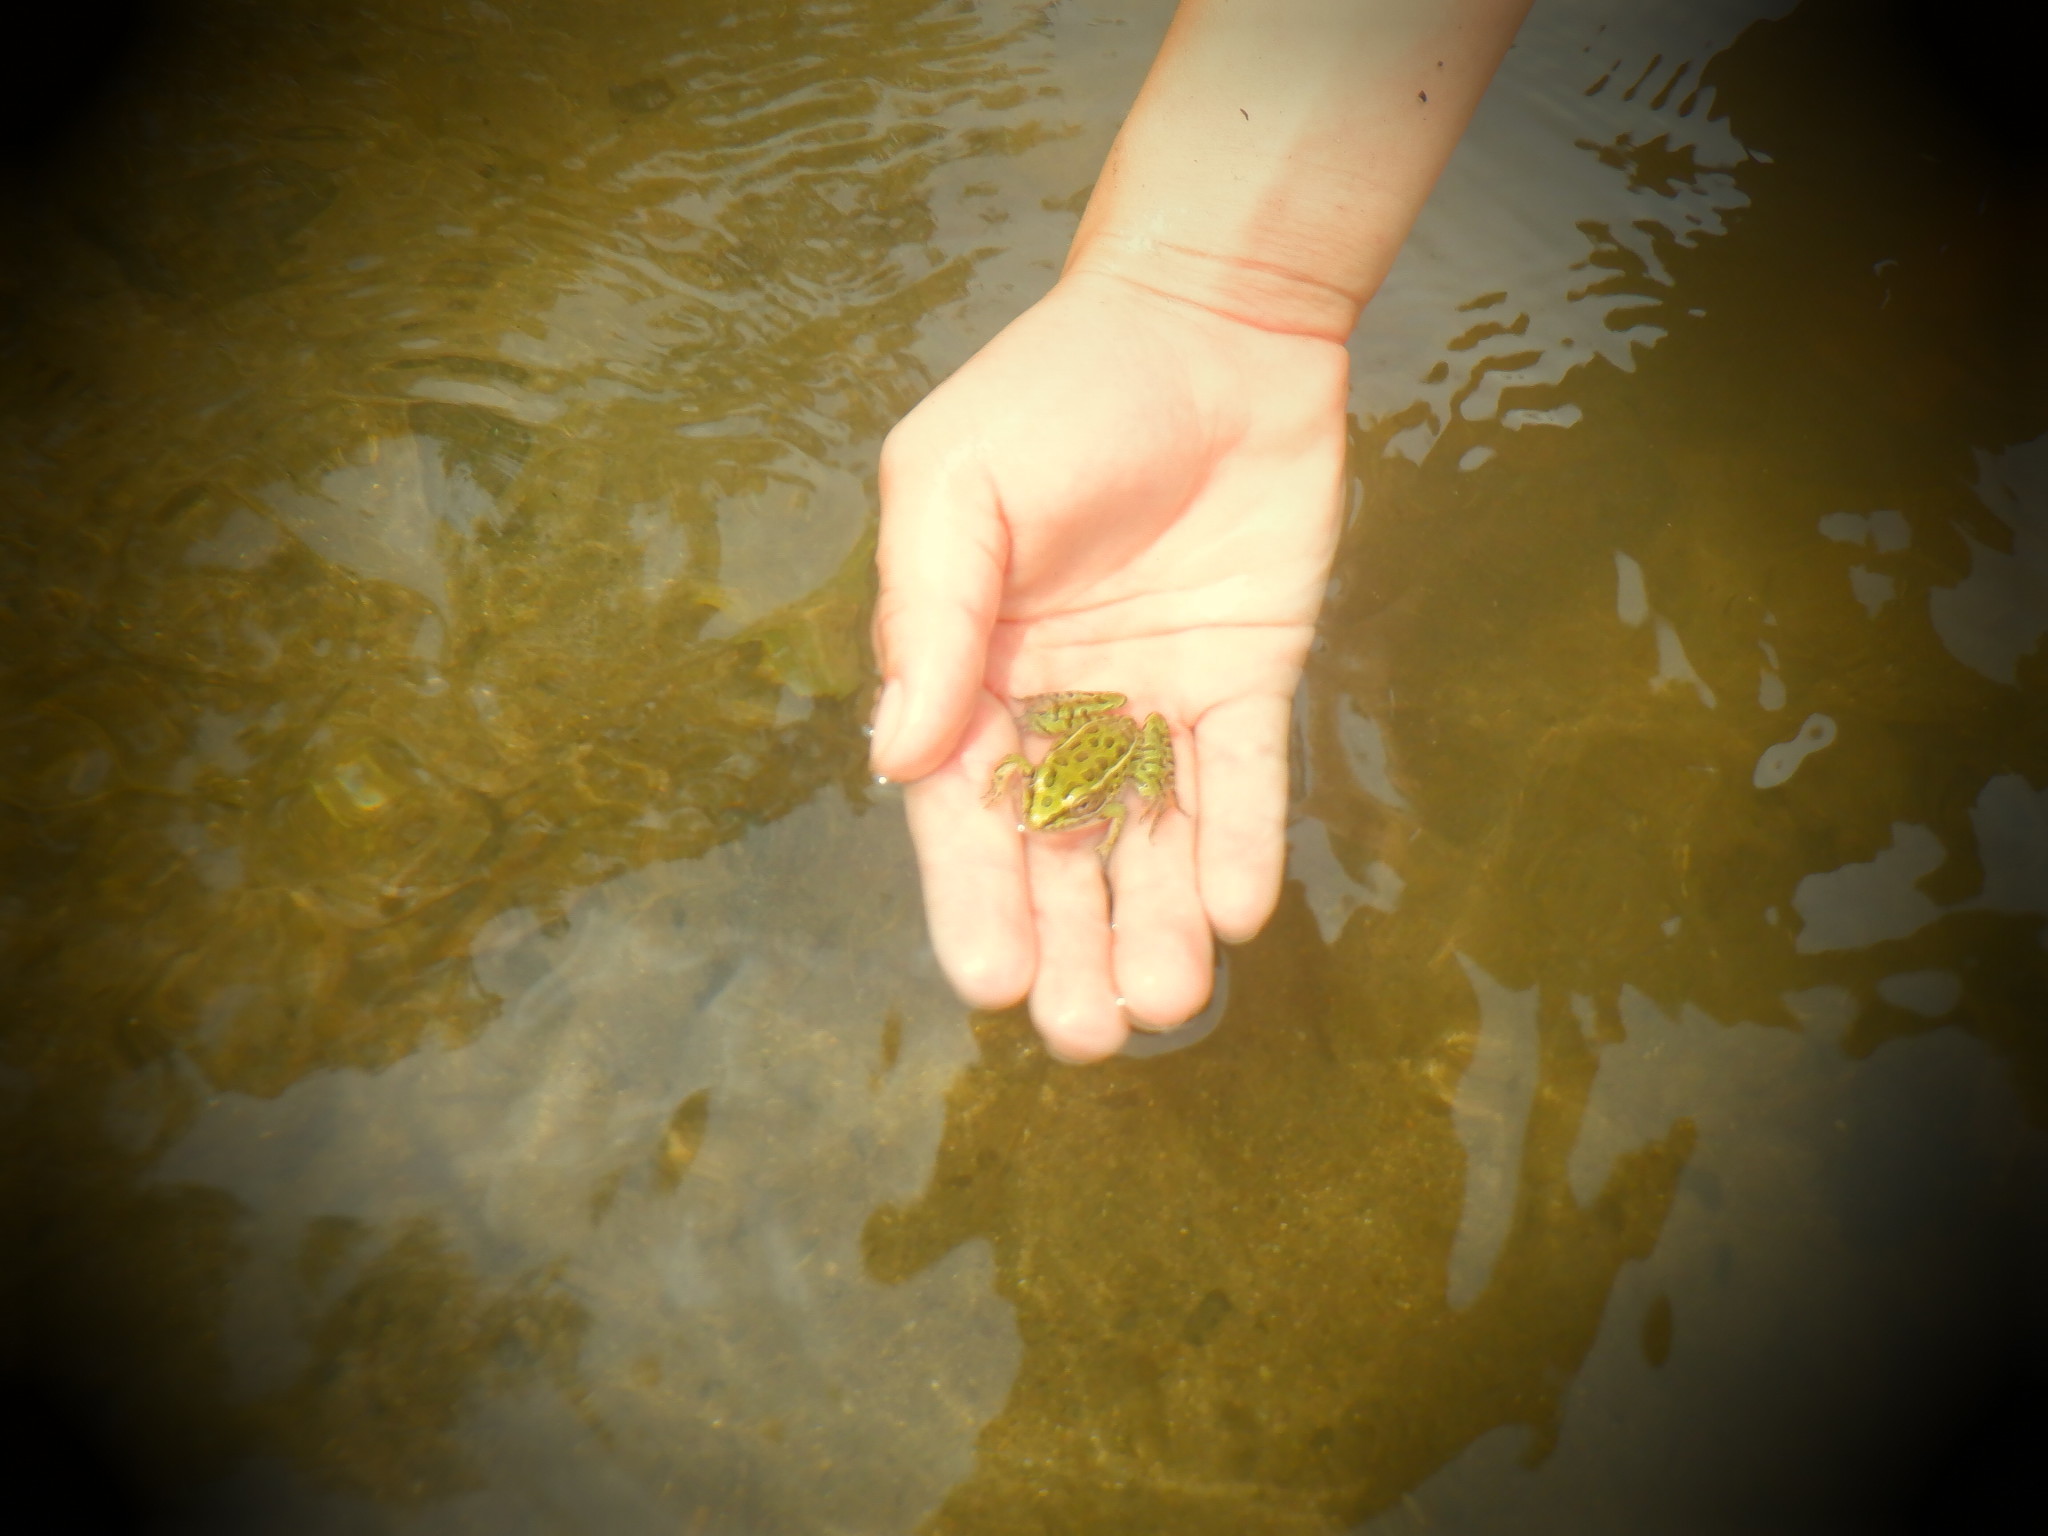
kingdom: Animalia
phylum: Chordata
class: Amphibia
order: Anura
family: Ranidae
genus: Lithobates
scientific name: Lithobates pipiens
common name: Northern leopard frog
